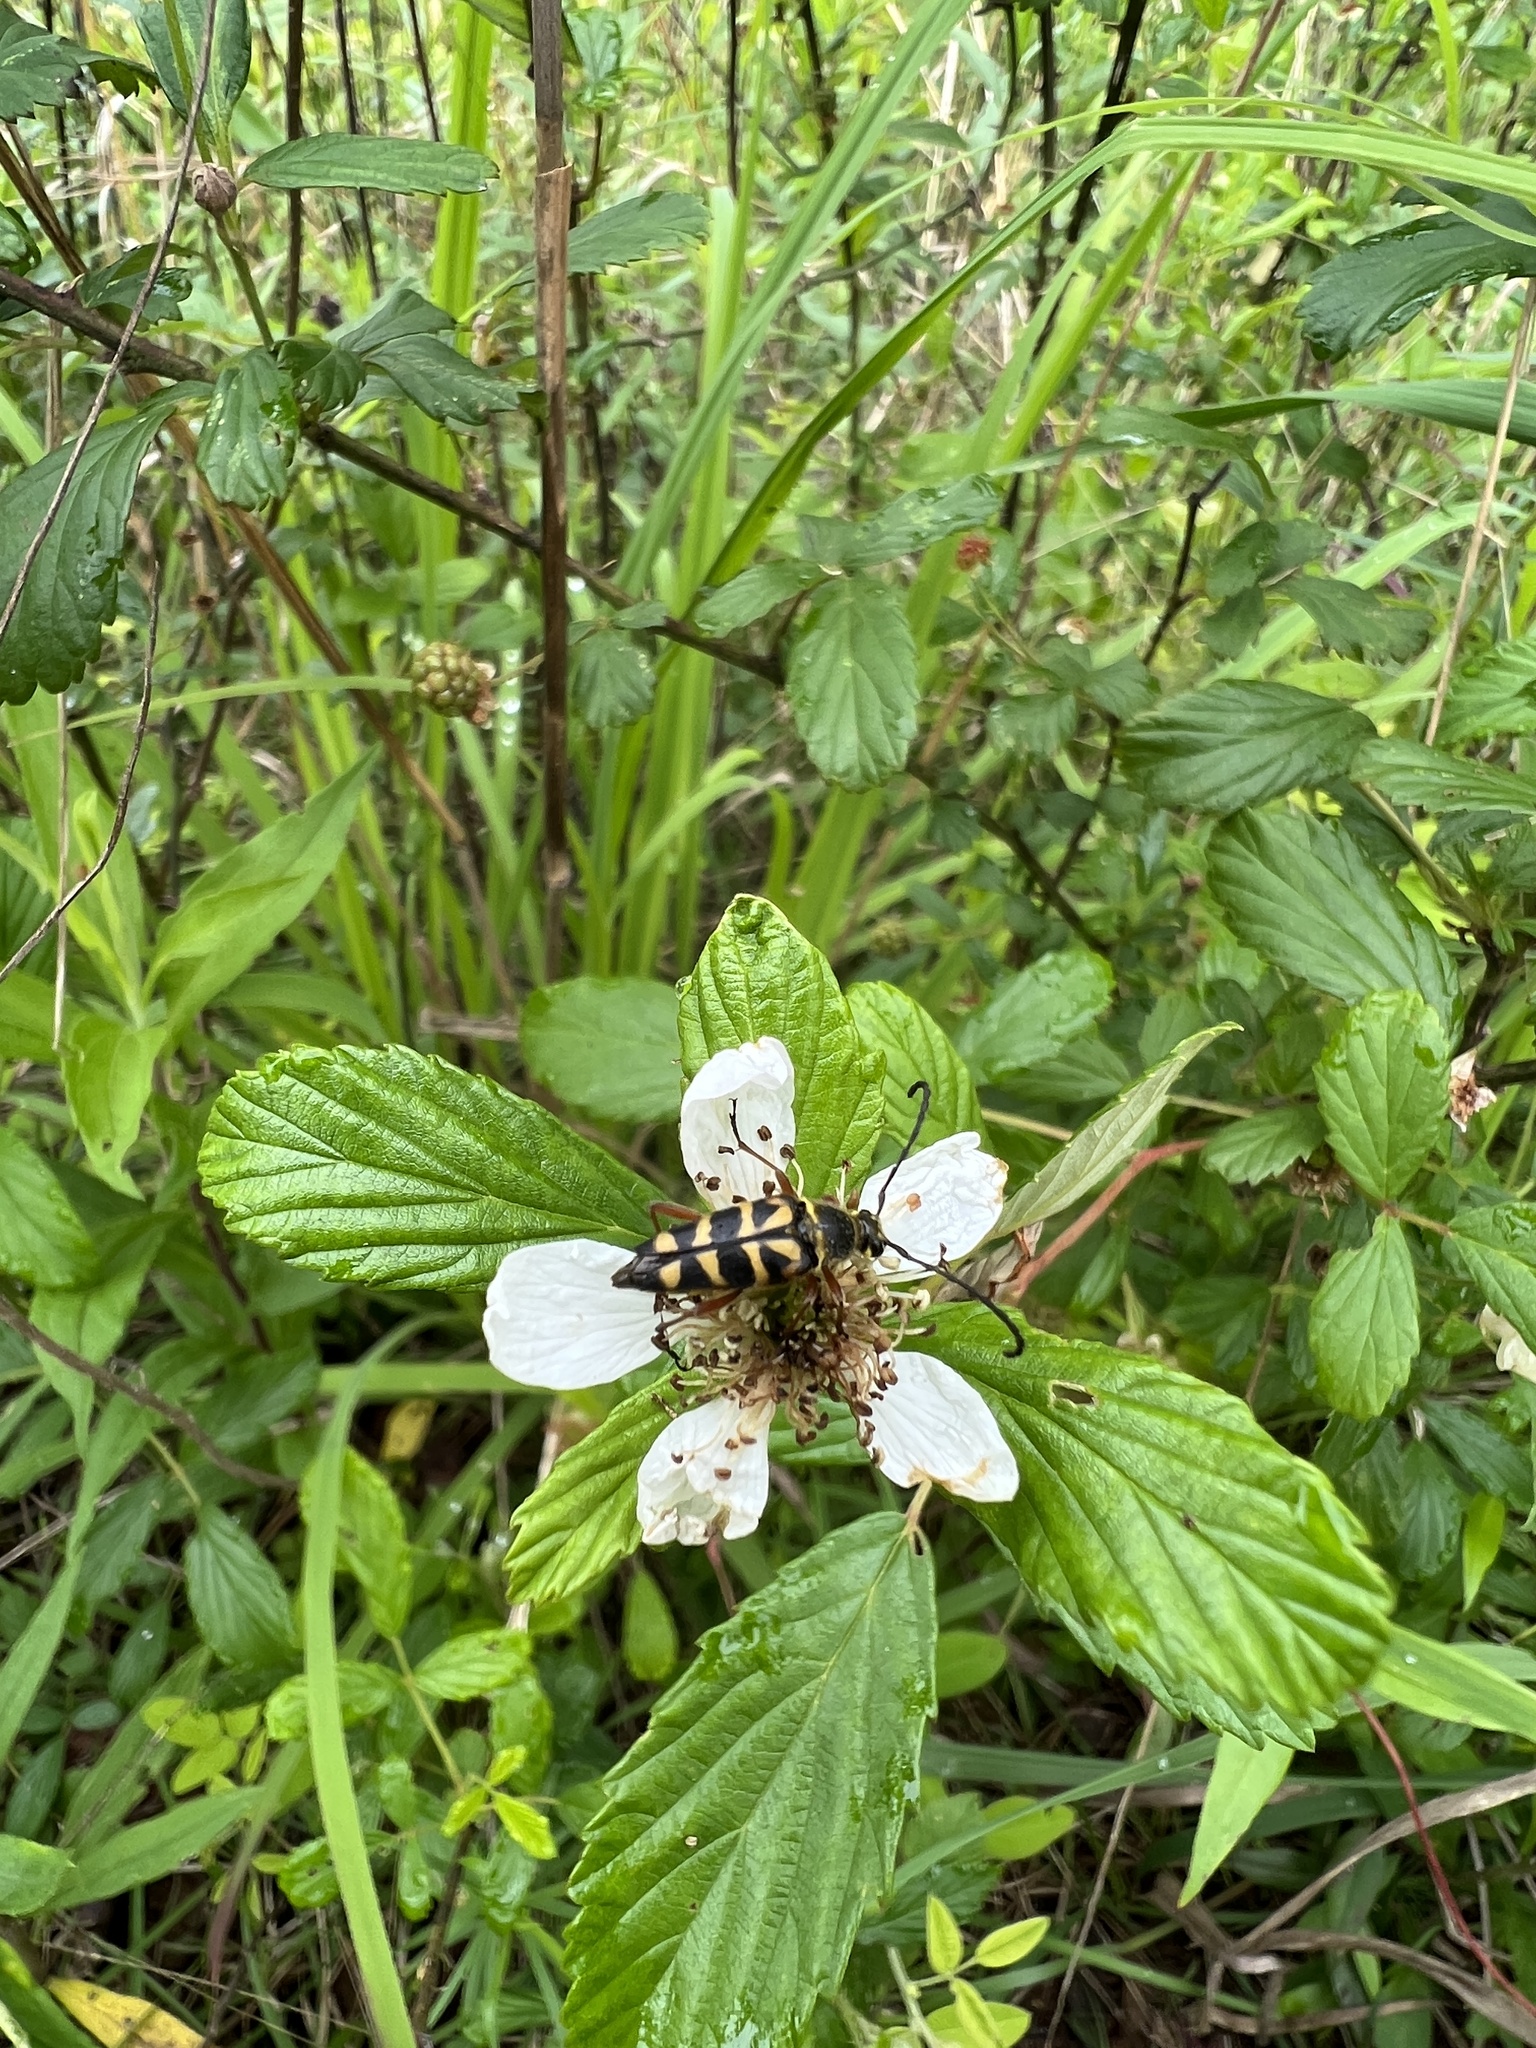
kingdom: Animalia
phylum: Arthropoda
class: Insecta
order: Coleoptera
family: Cerambycidae
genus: Typocerus
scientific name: Typocerus zebra
